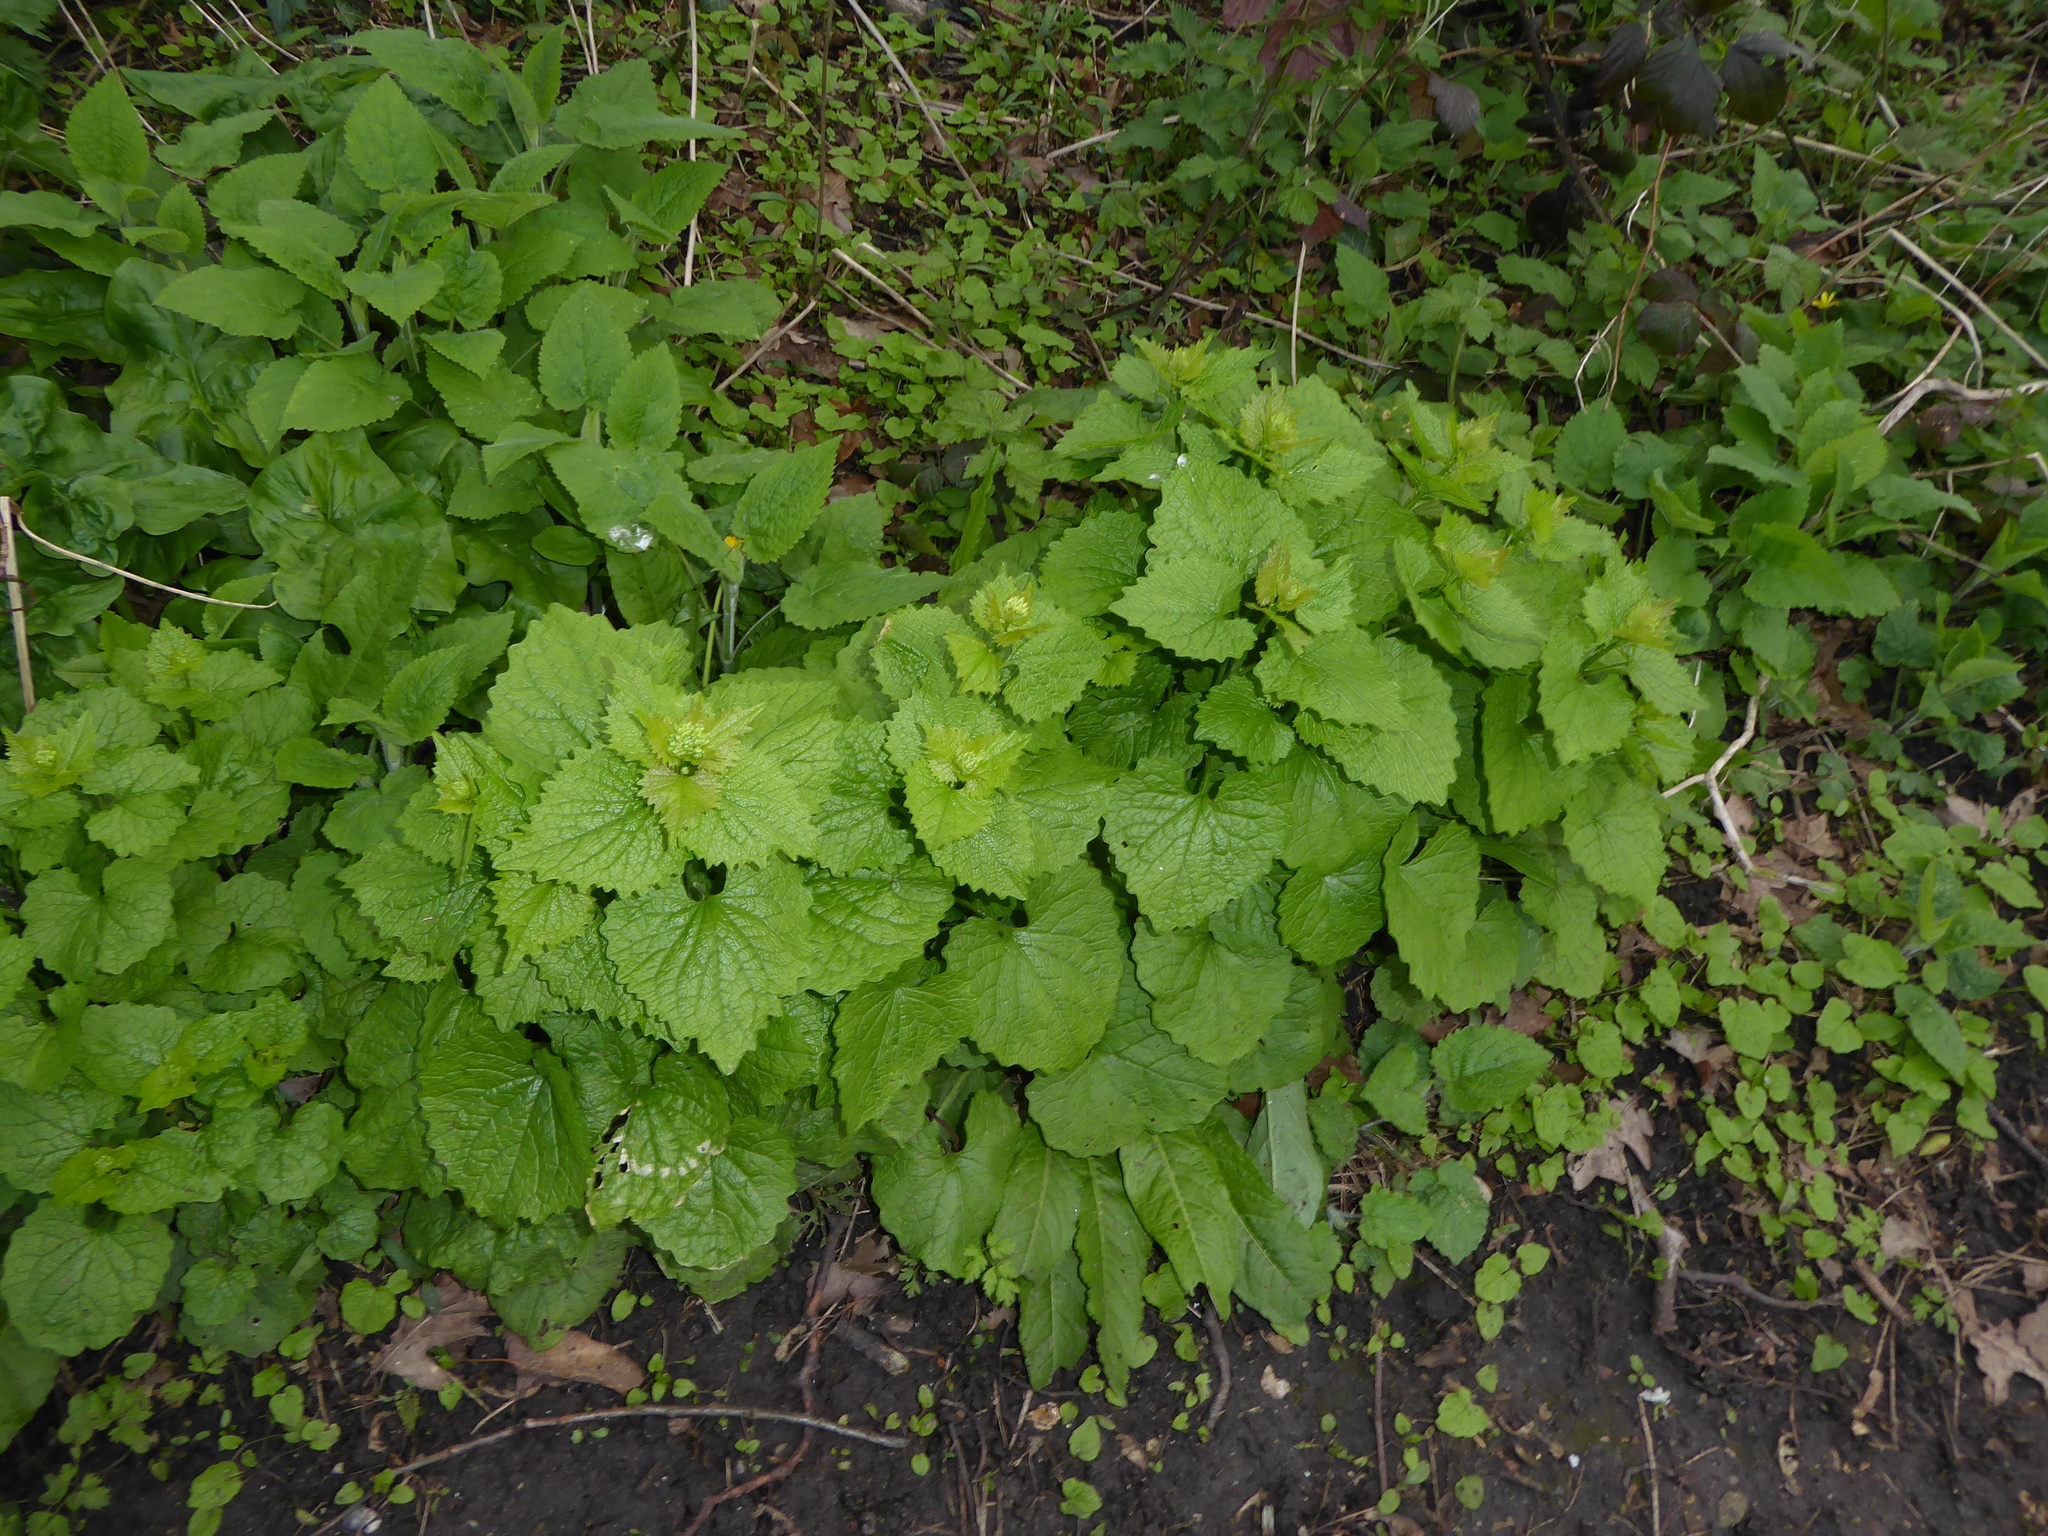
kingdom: Plantae
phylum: Tracheophyta
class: Magnoliopsida
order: Brassicales
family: Brassicaceae
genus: Alliaria
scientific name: Alliaria petiolata
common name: Garlic mustard
